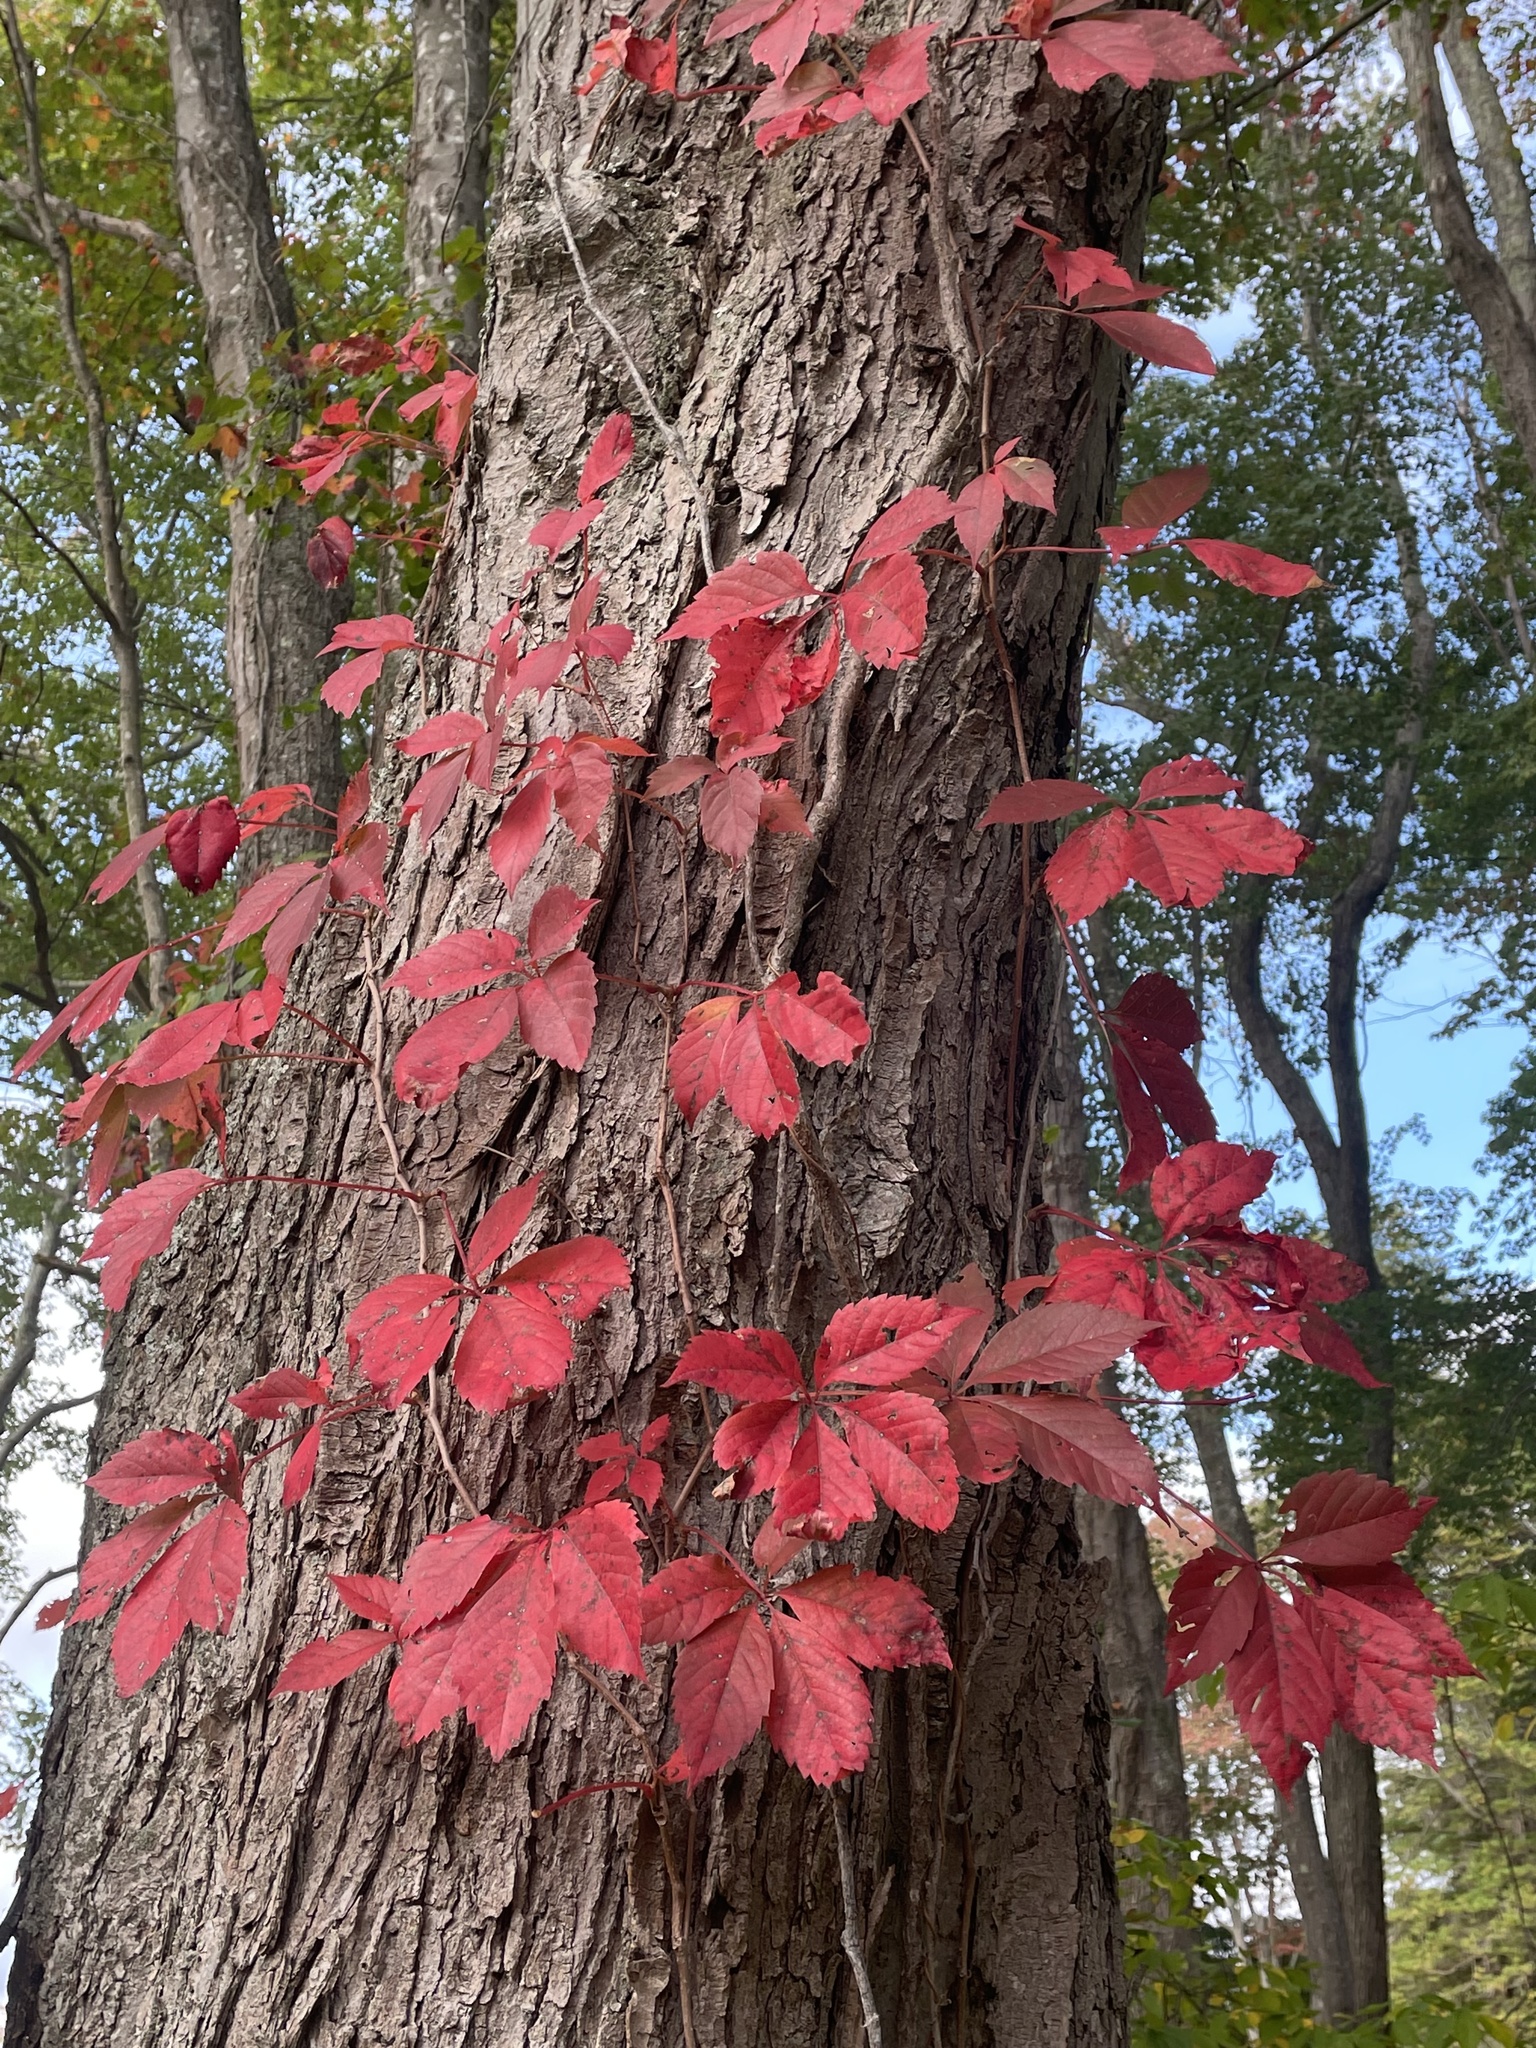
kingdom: Plantae
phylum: Tracheophyta
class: Magnoliopsida
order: Vitales
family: Vitaceae
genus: Parthenocissus
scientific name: Parthenocissus quinquefolia
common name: Virginia-creeper
